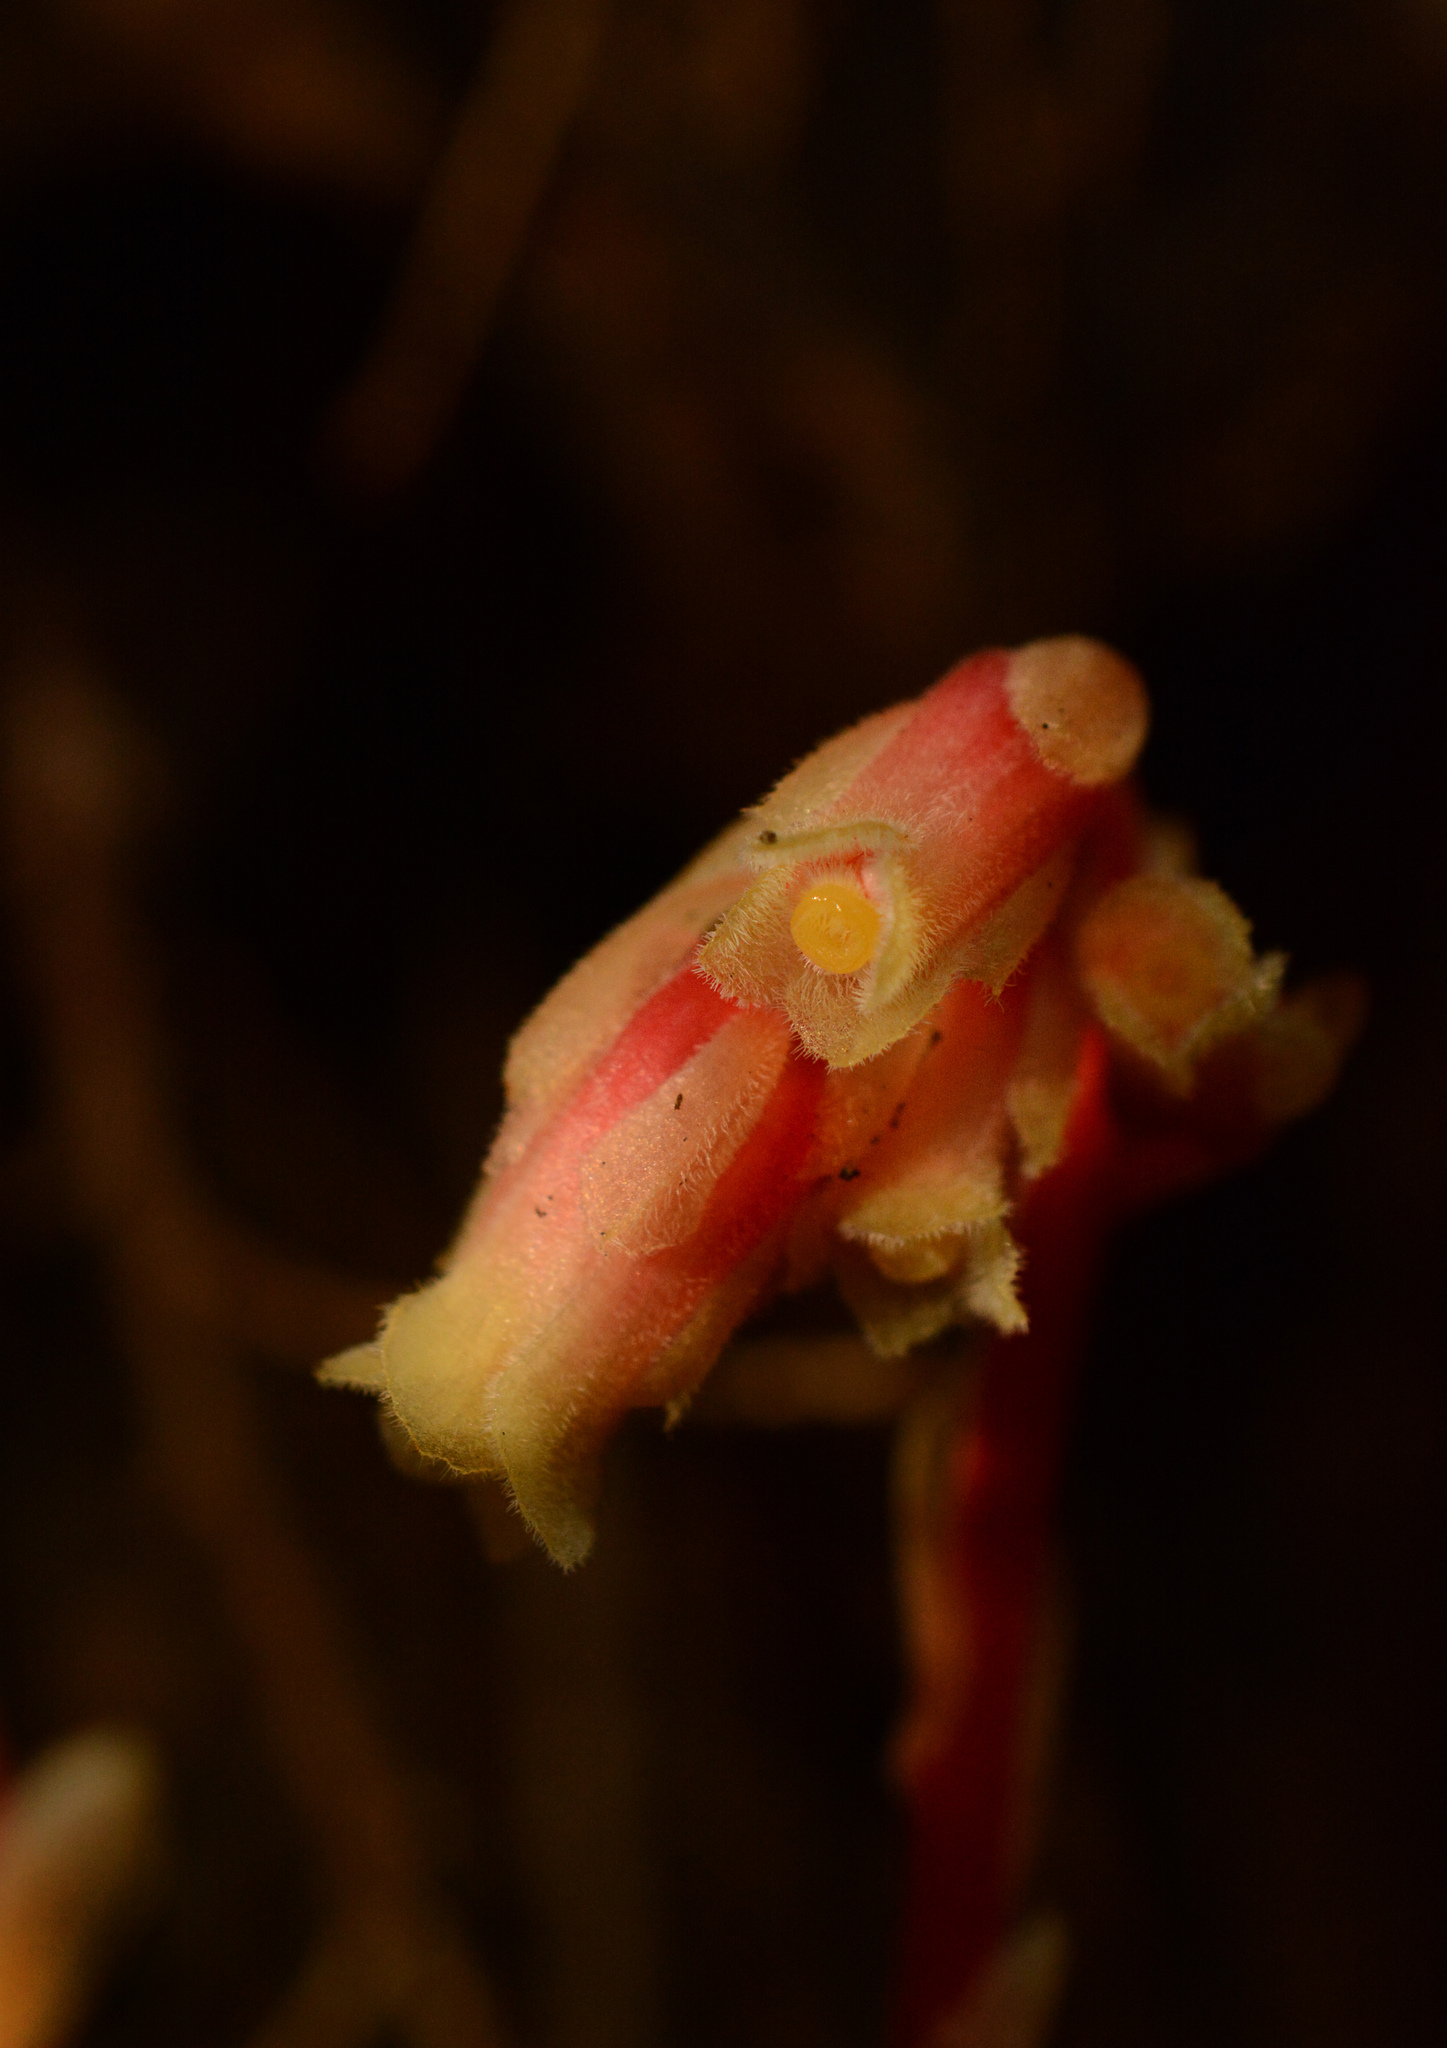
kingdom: Plantae
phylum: Tracheophyta
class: Magnoliopsida
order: Ericales
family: Ericaceae
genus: Hypopitys
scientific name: Hypopitys monotropa
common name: Yellow bird's-nest
